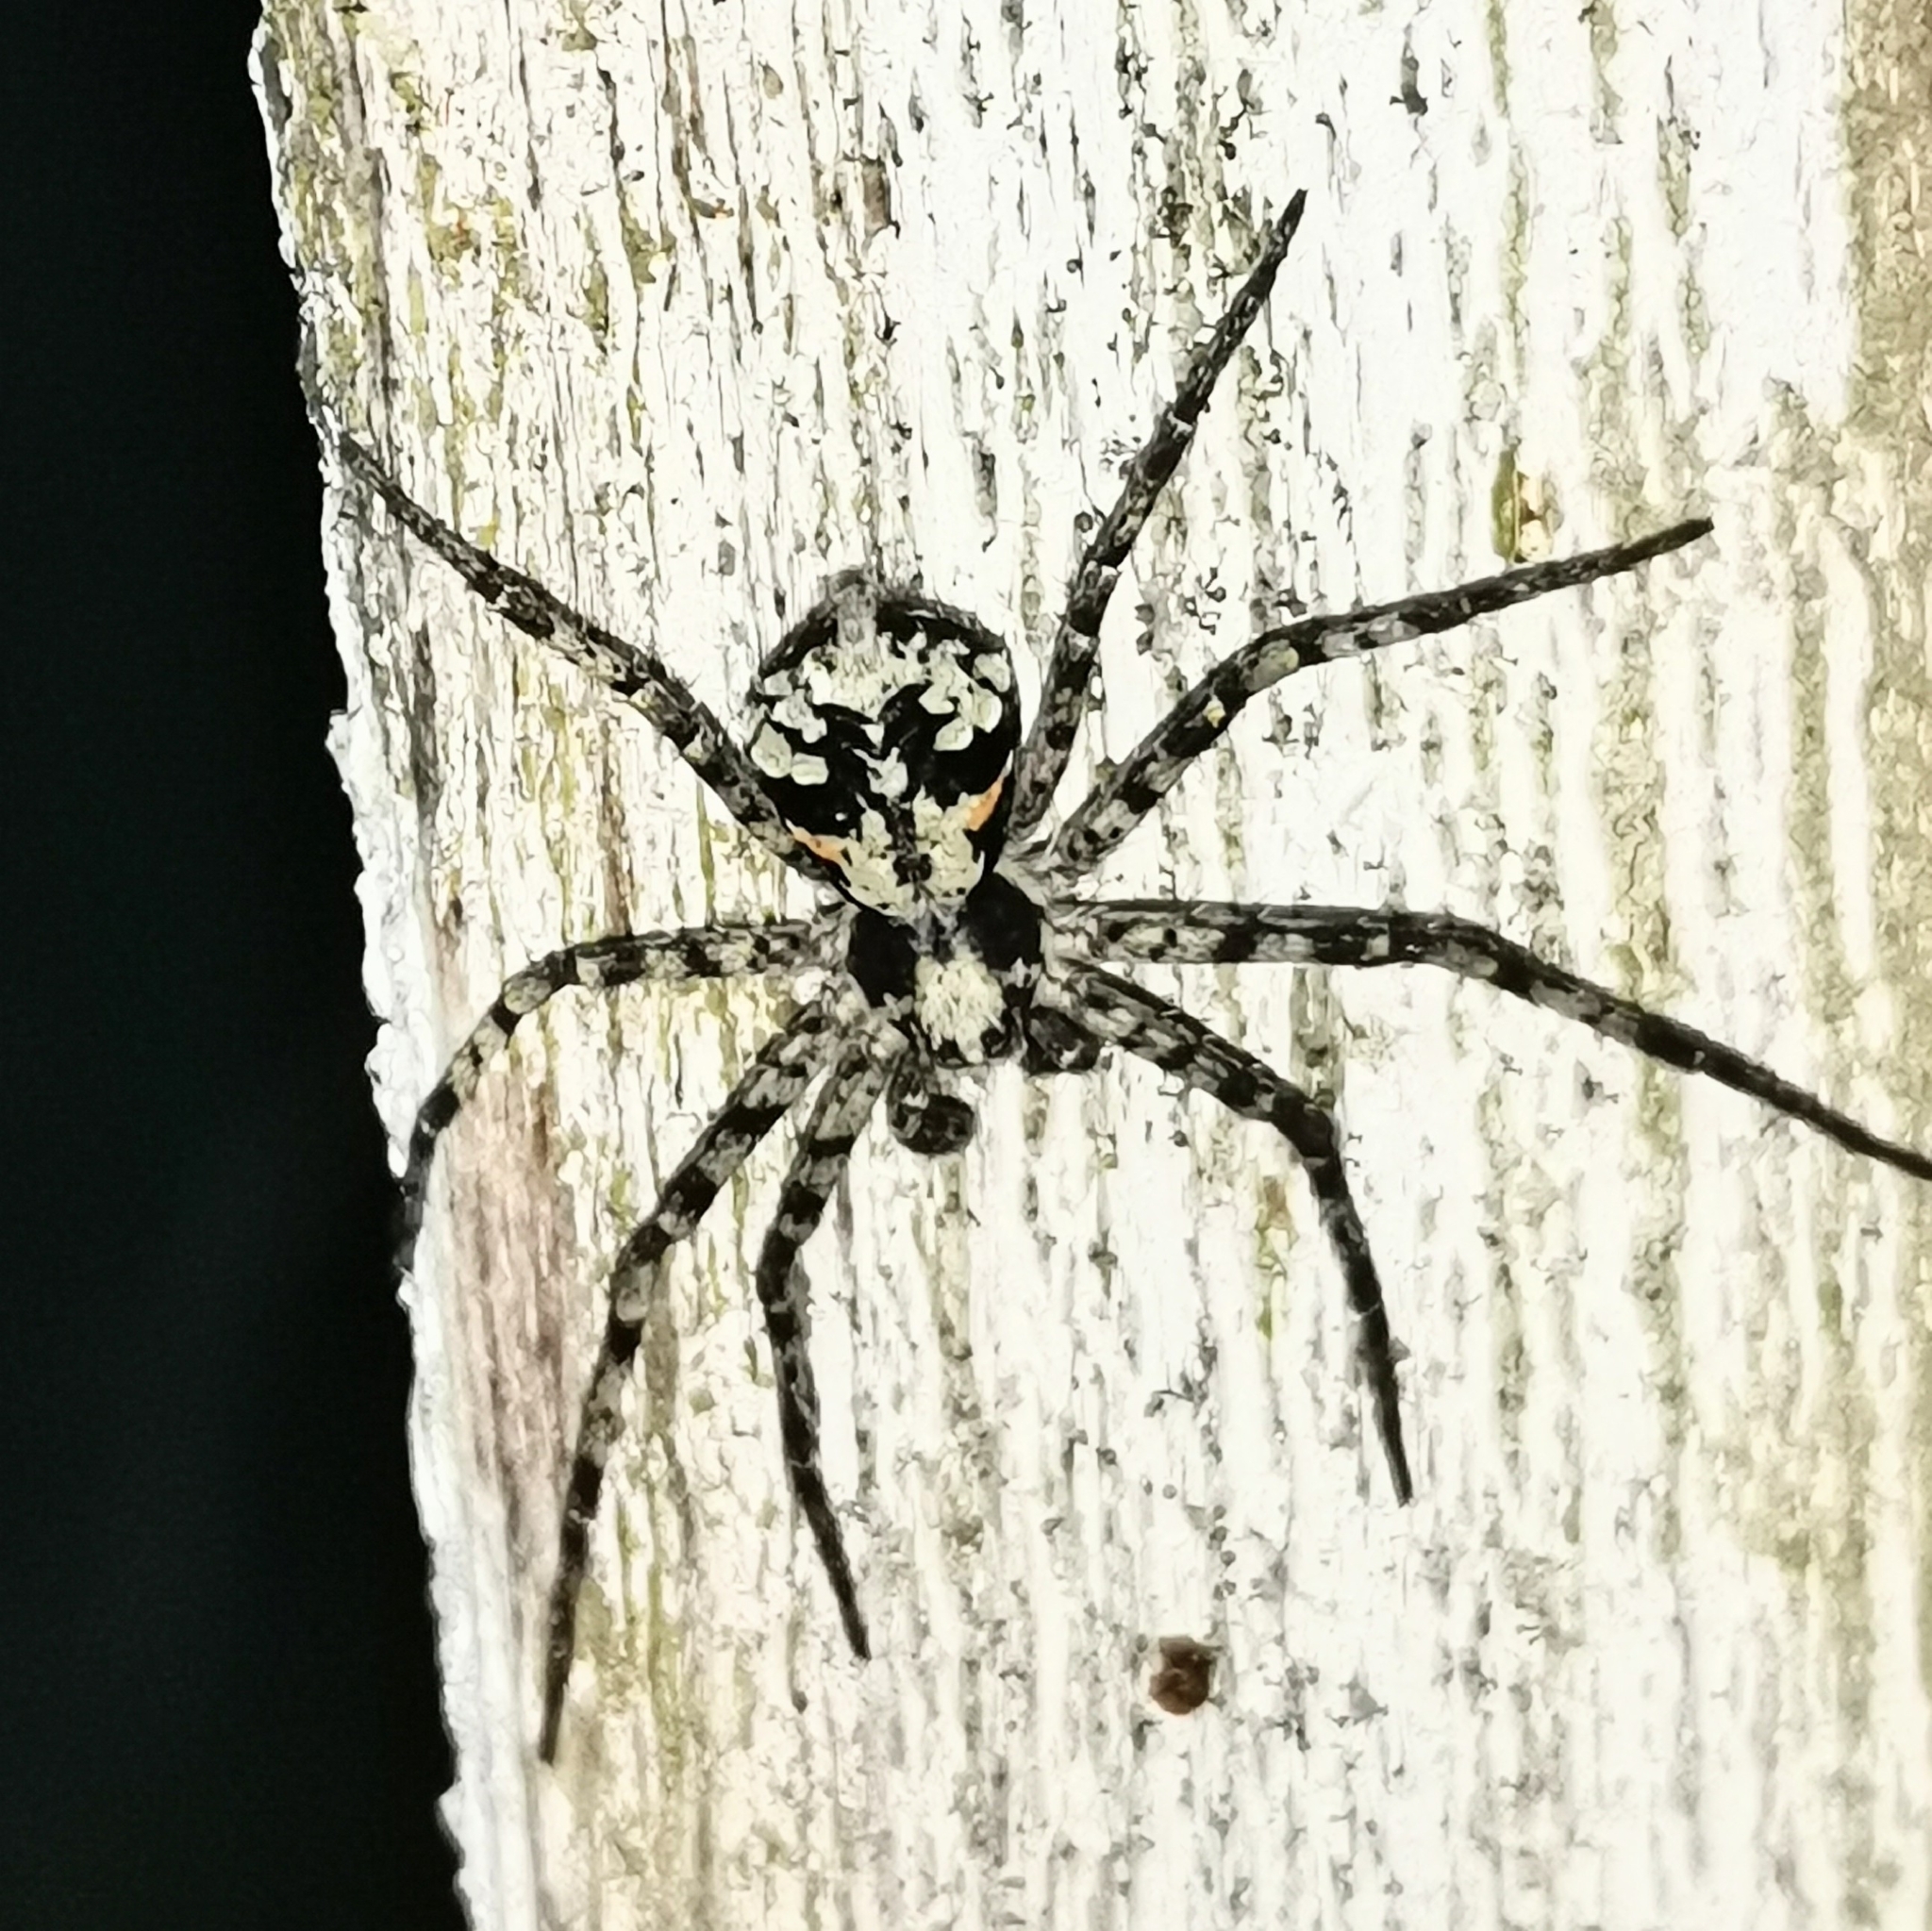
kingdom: Animalia
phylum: Arthropoda
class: Arachnida
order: Araneae
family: Philodromidae
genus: Philodromus
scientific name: Philodromus margaritatus
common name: Lichen running-spider
